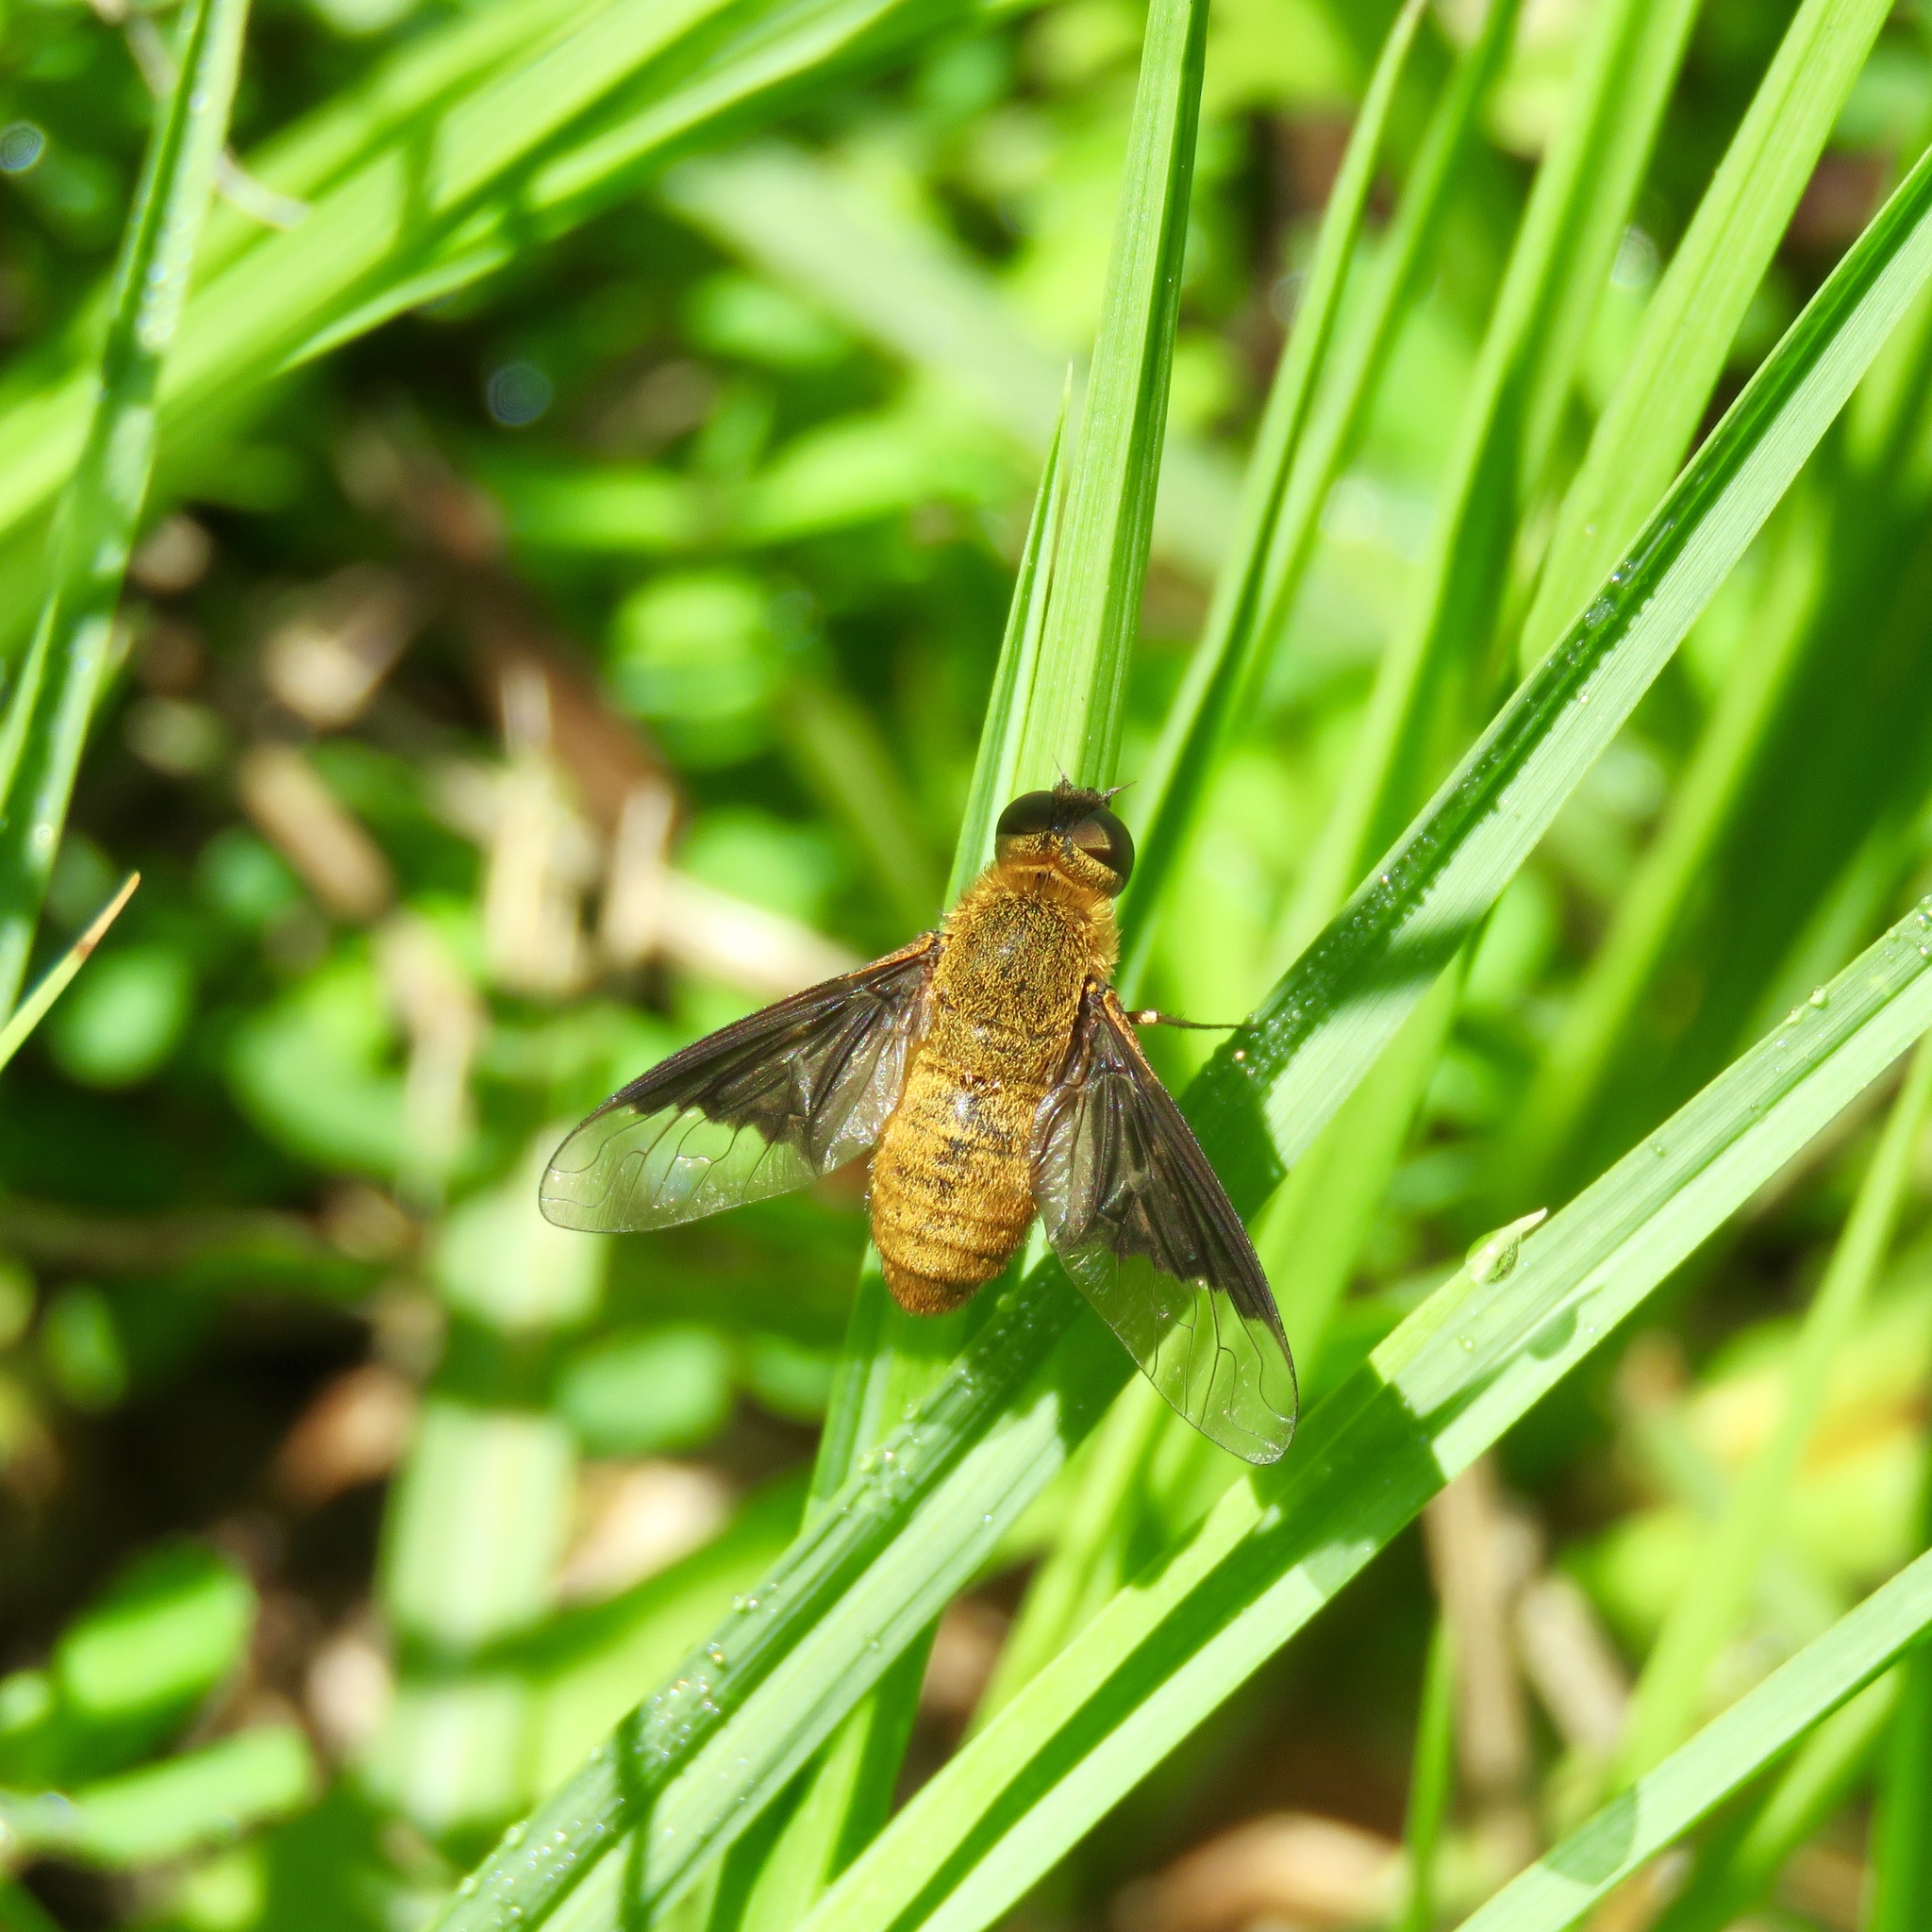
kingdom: Animalia
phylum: Arthropoda
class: Insecta
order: Diptera
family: Bombyliidae
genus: Chrysanthrax
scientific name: Chrysanthrax cypris
